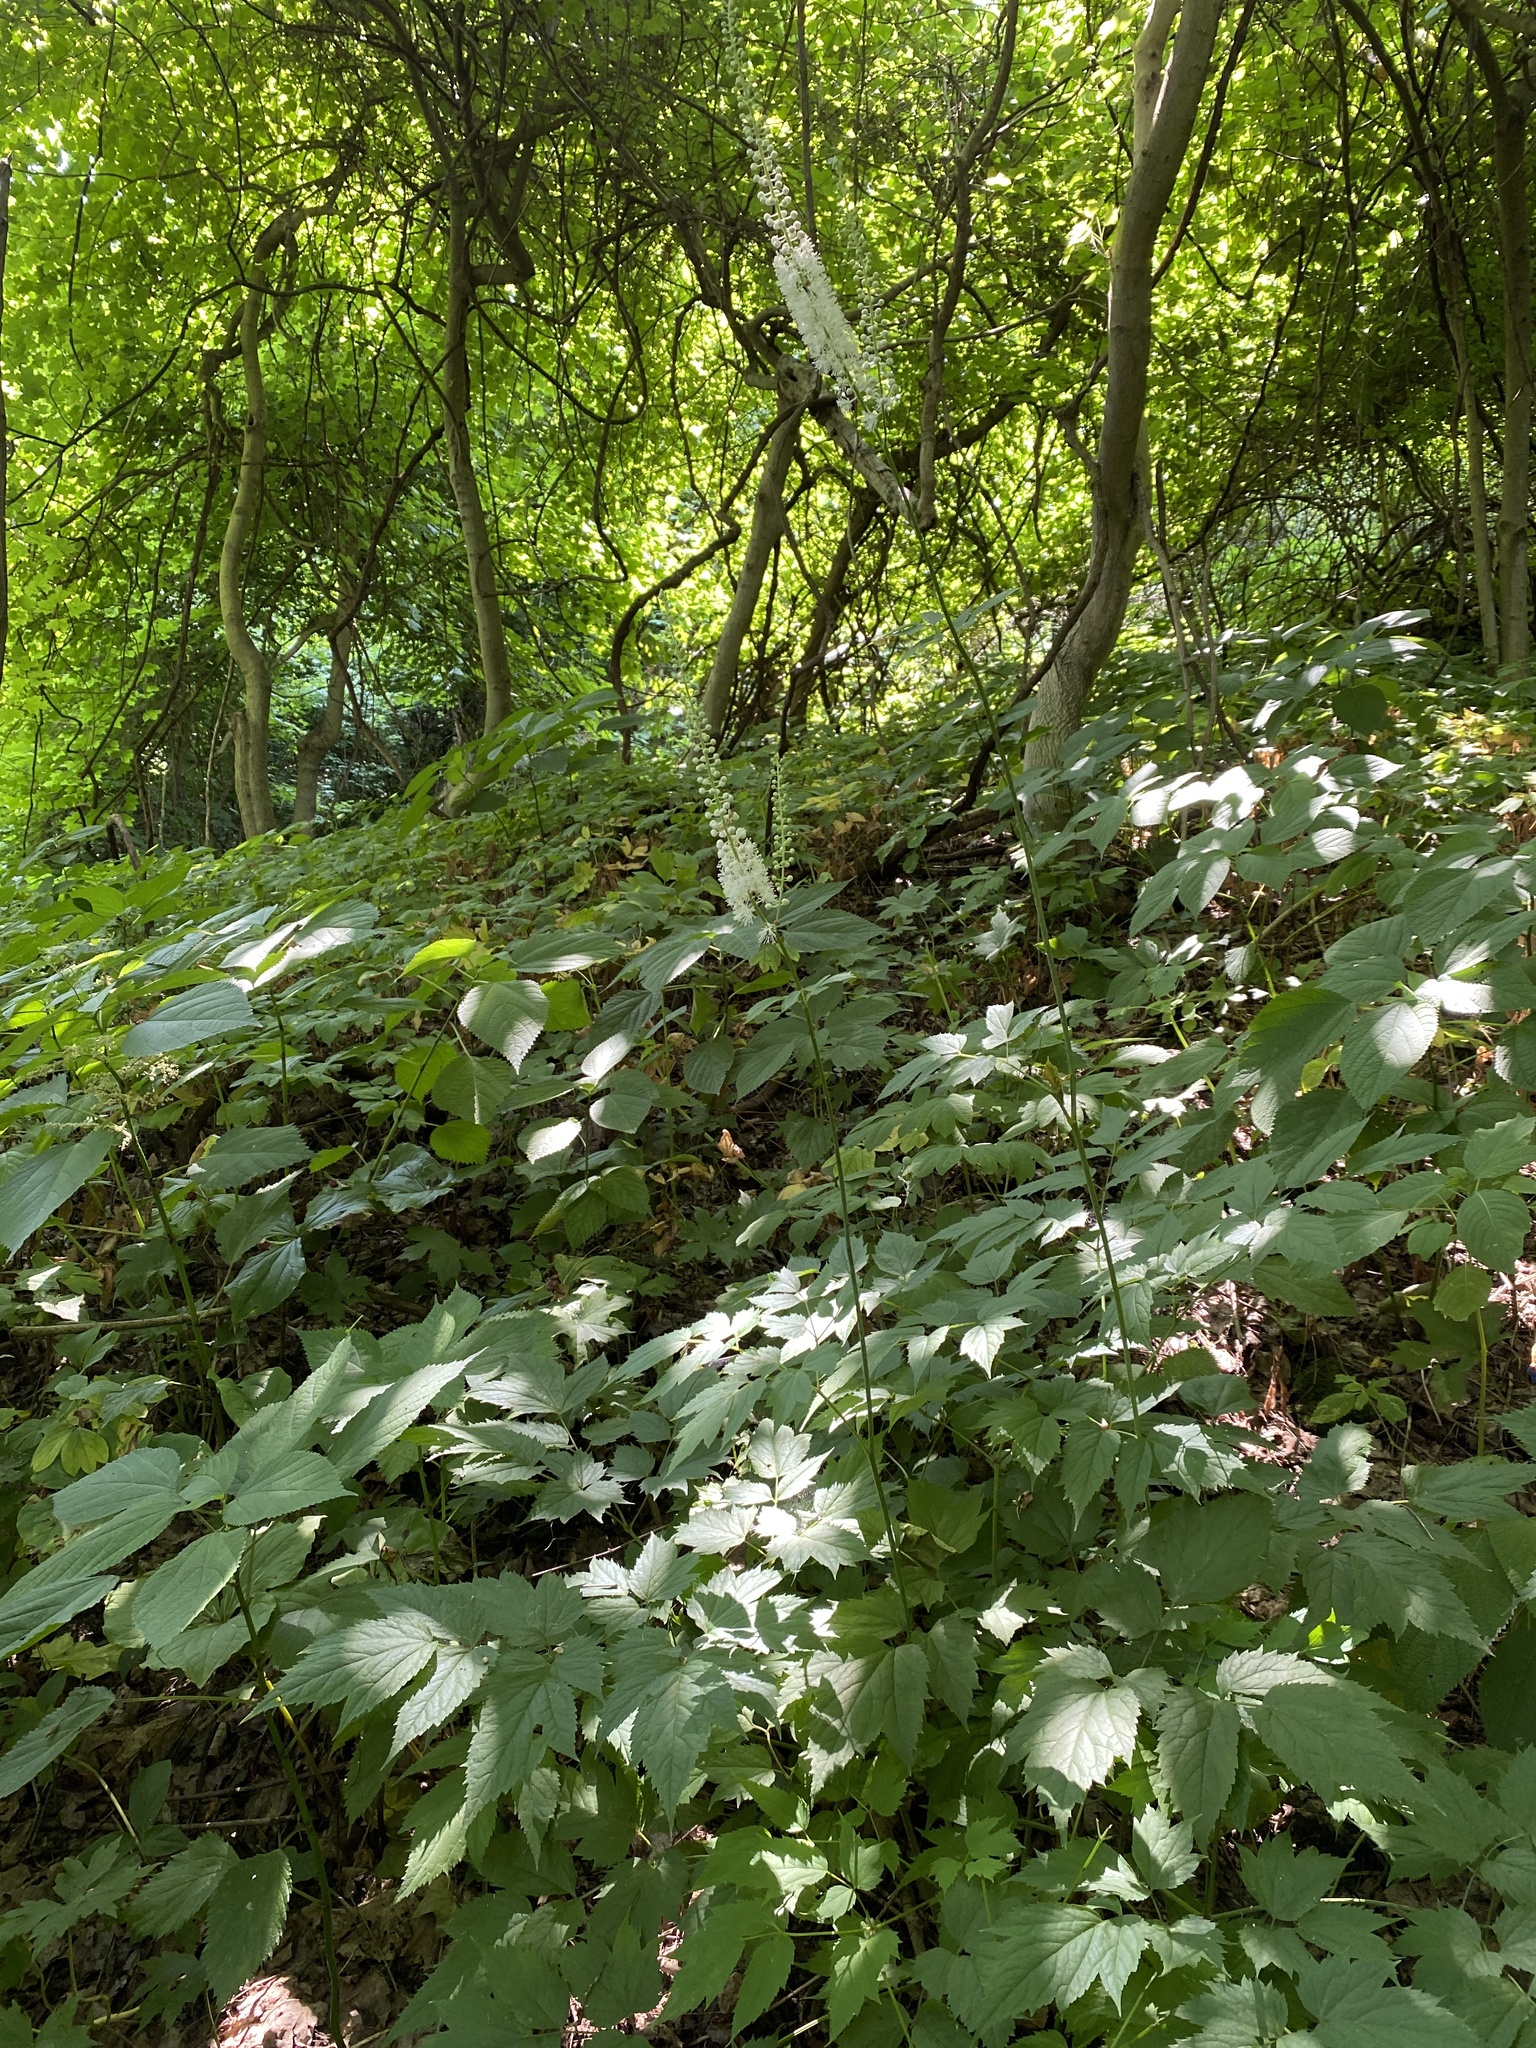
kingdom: Plantae
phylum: Tracheophyta
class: Magnoliopsida
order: Ranunculales
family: Ranunculaceae
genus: Actaea
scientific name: Actaea racemosa
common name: Black cohosh
